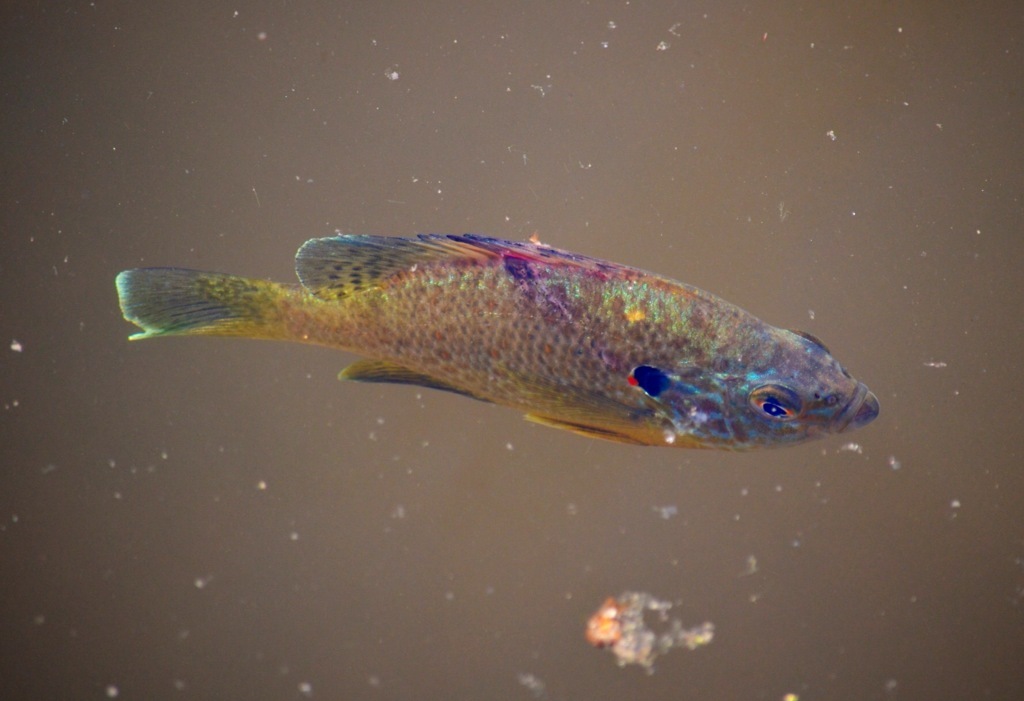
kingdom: Animalia
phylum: Chordata
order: Perciformes
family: Centrarchidae
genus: Lepomis
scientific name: Lepomis gibbosus
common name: Pumpkinseed
